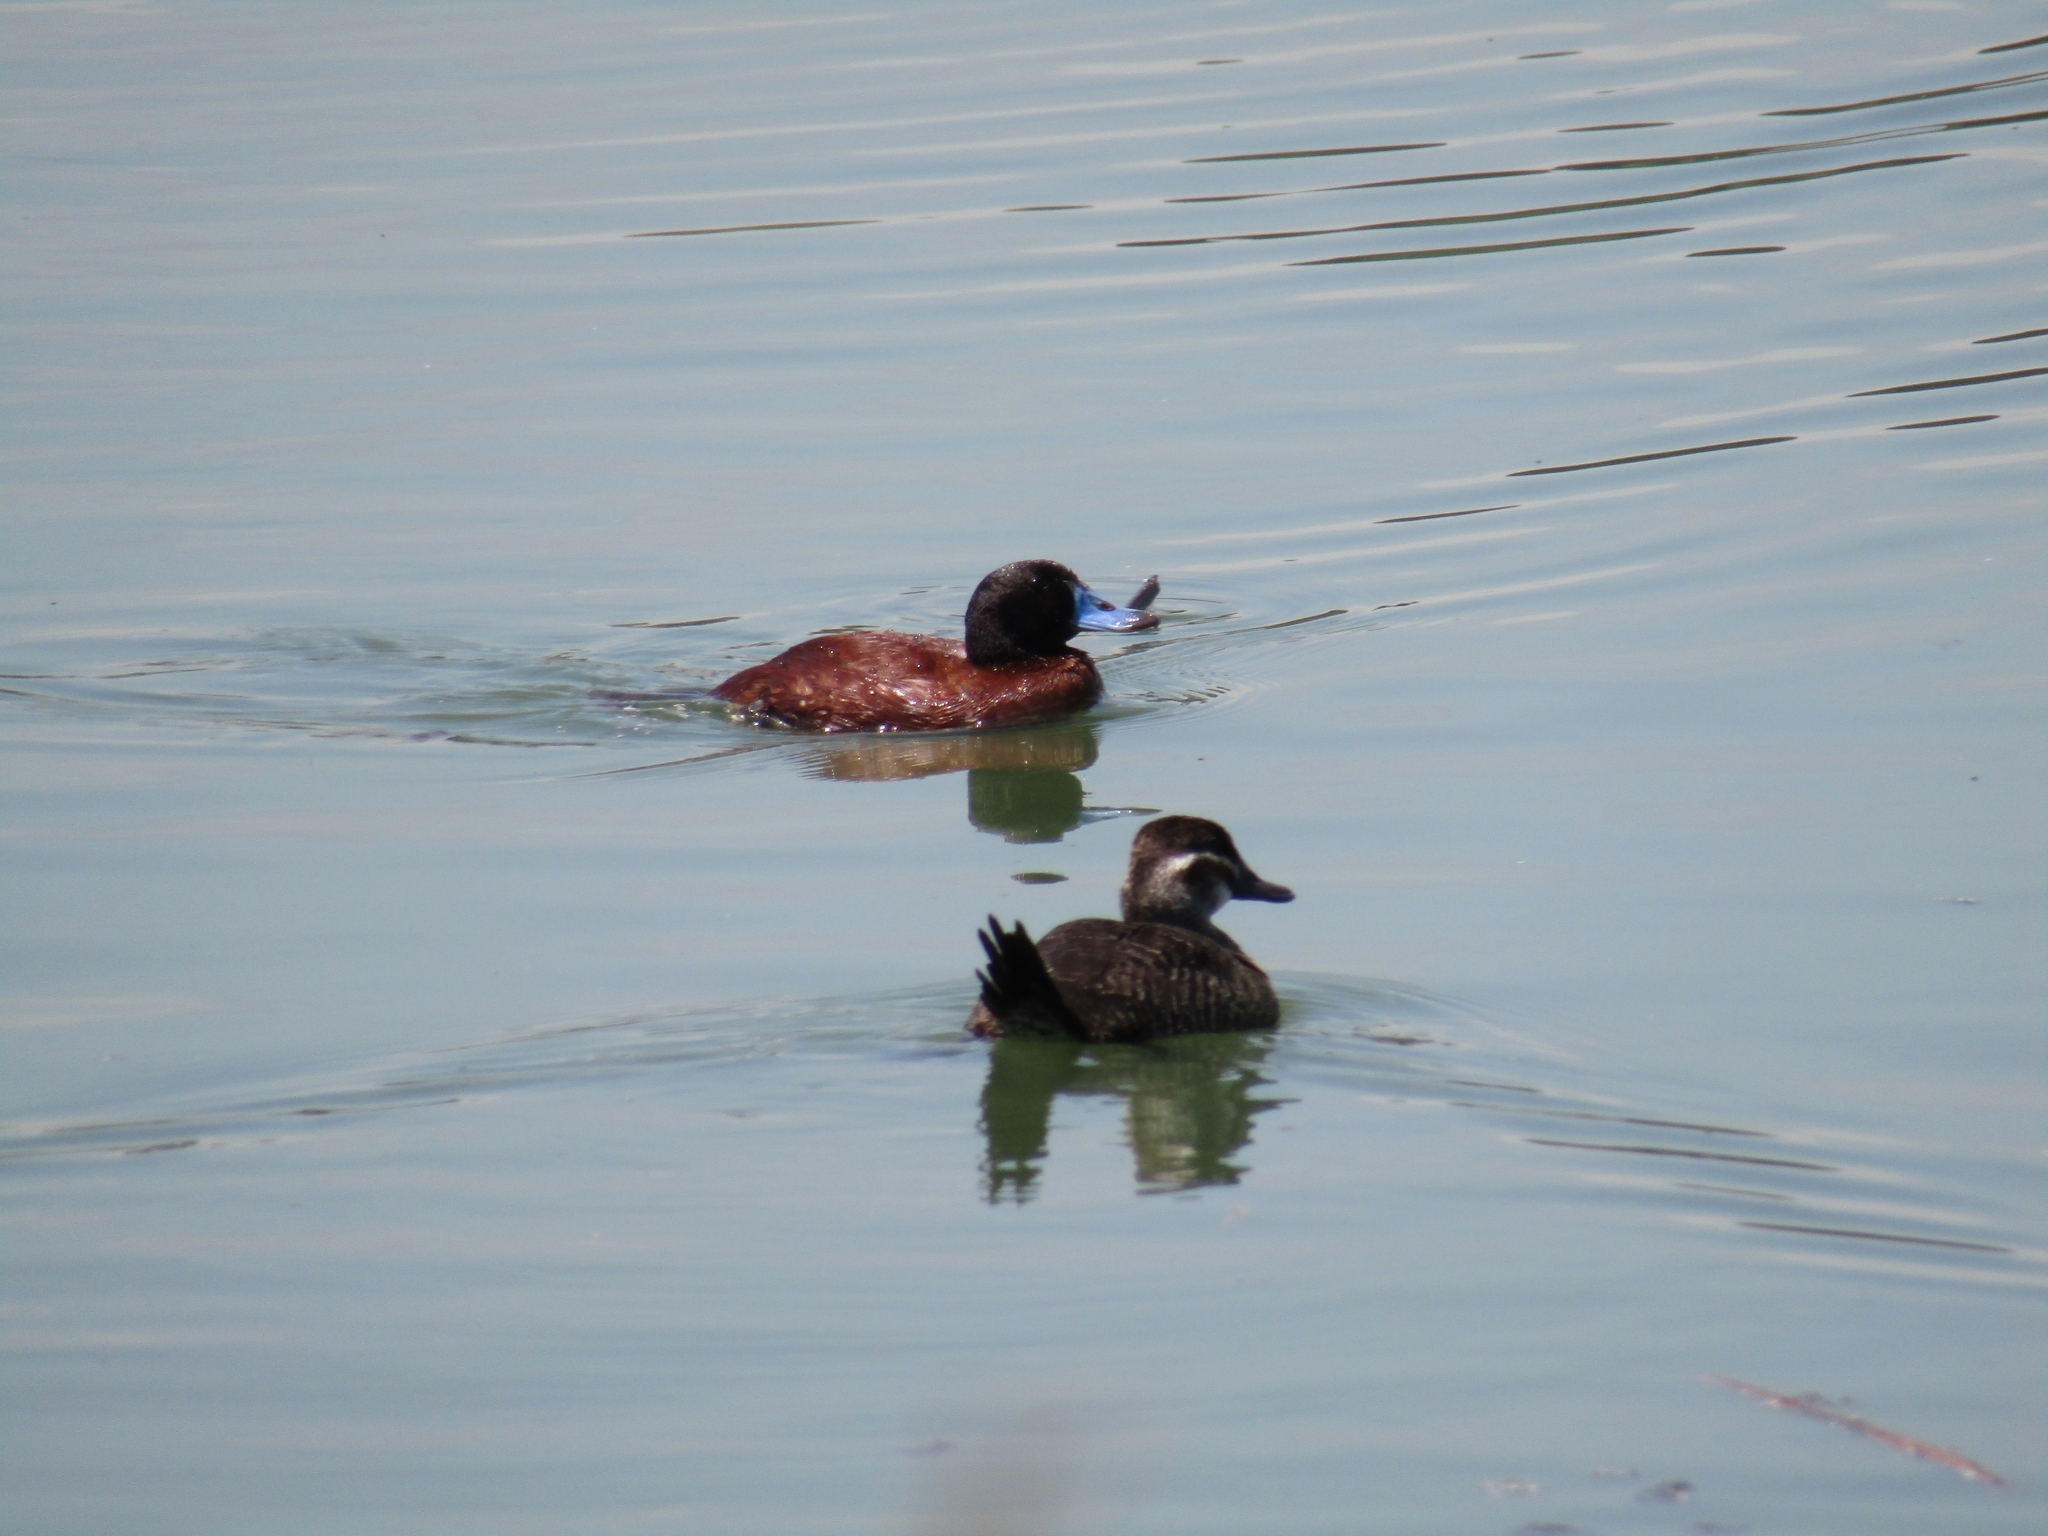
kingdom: Animalia
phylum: Chordata
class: Aves
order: Anseriformes
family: Anatidae
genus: Oxyura
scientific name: Oxyura vittata
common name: Lake duck
